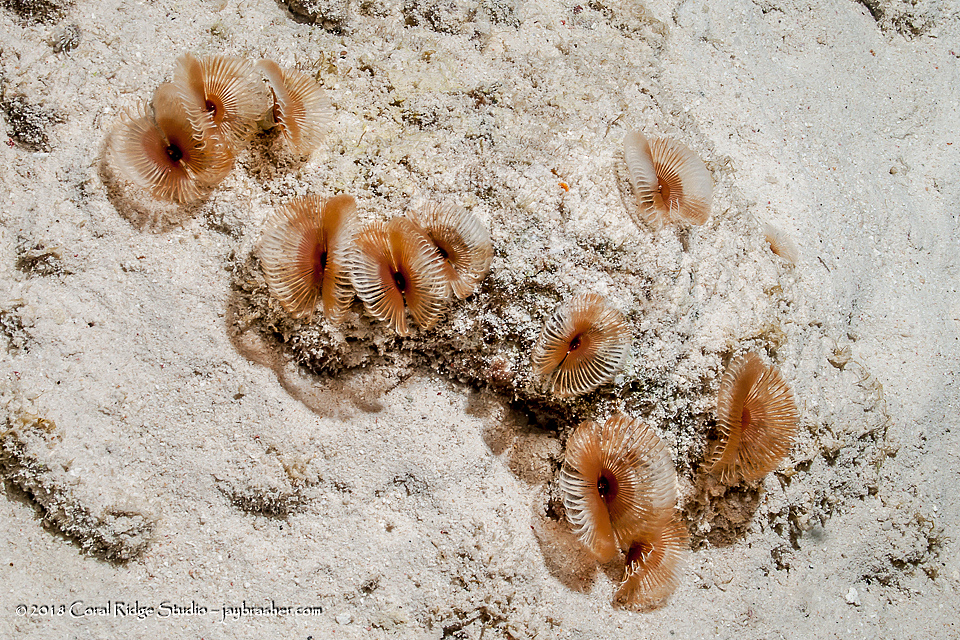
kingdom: Animalia
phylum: Annelida
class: Polychaeta
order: Sabellida
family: Sabellidae
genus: Anamobaea
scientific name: Anamobaea orstedii
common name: Split-crown feather duster
